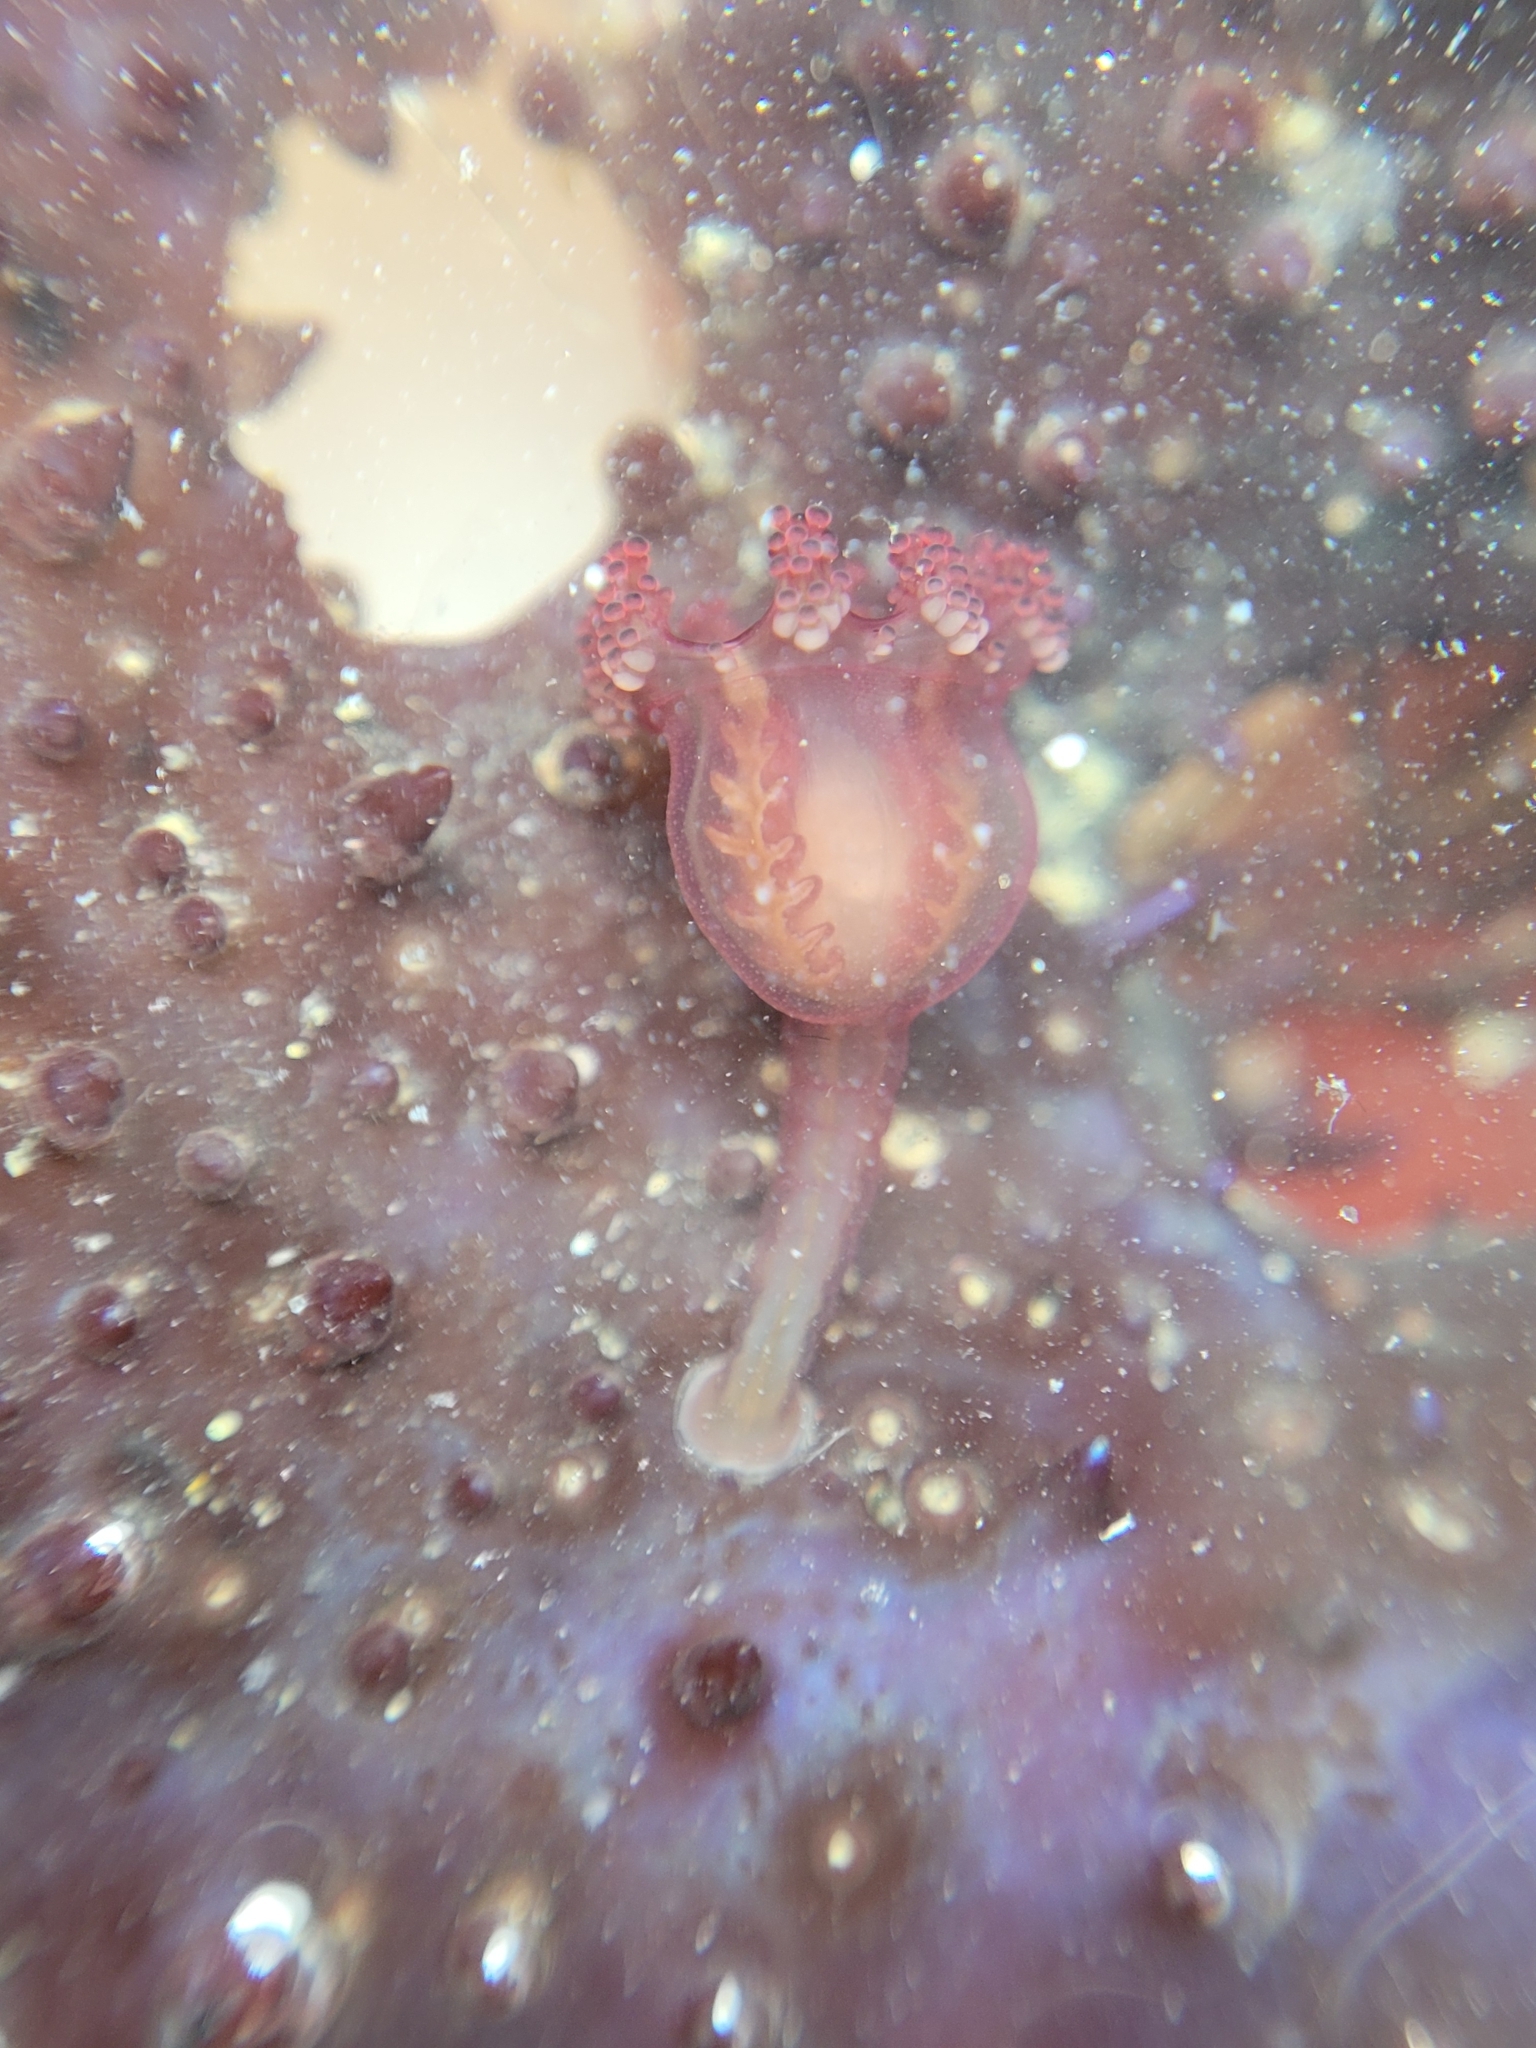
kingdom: Animalia
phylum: Cnidaria
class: Staurozoa
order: Stauromedusae
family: Haliclystidae
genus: Manania
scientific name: Manania gwilliami
